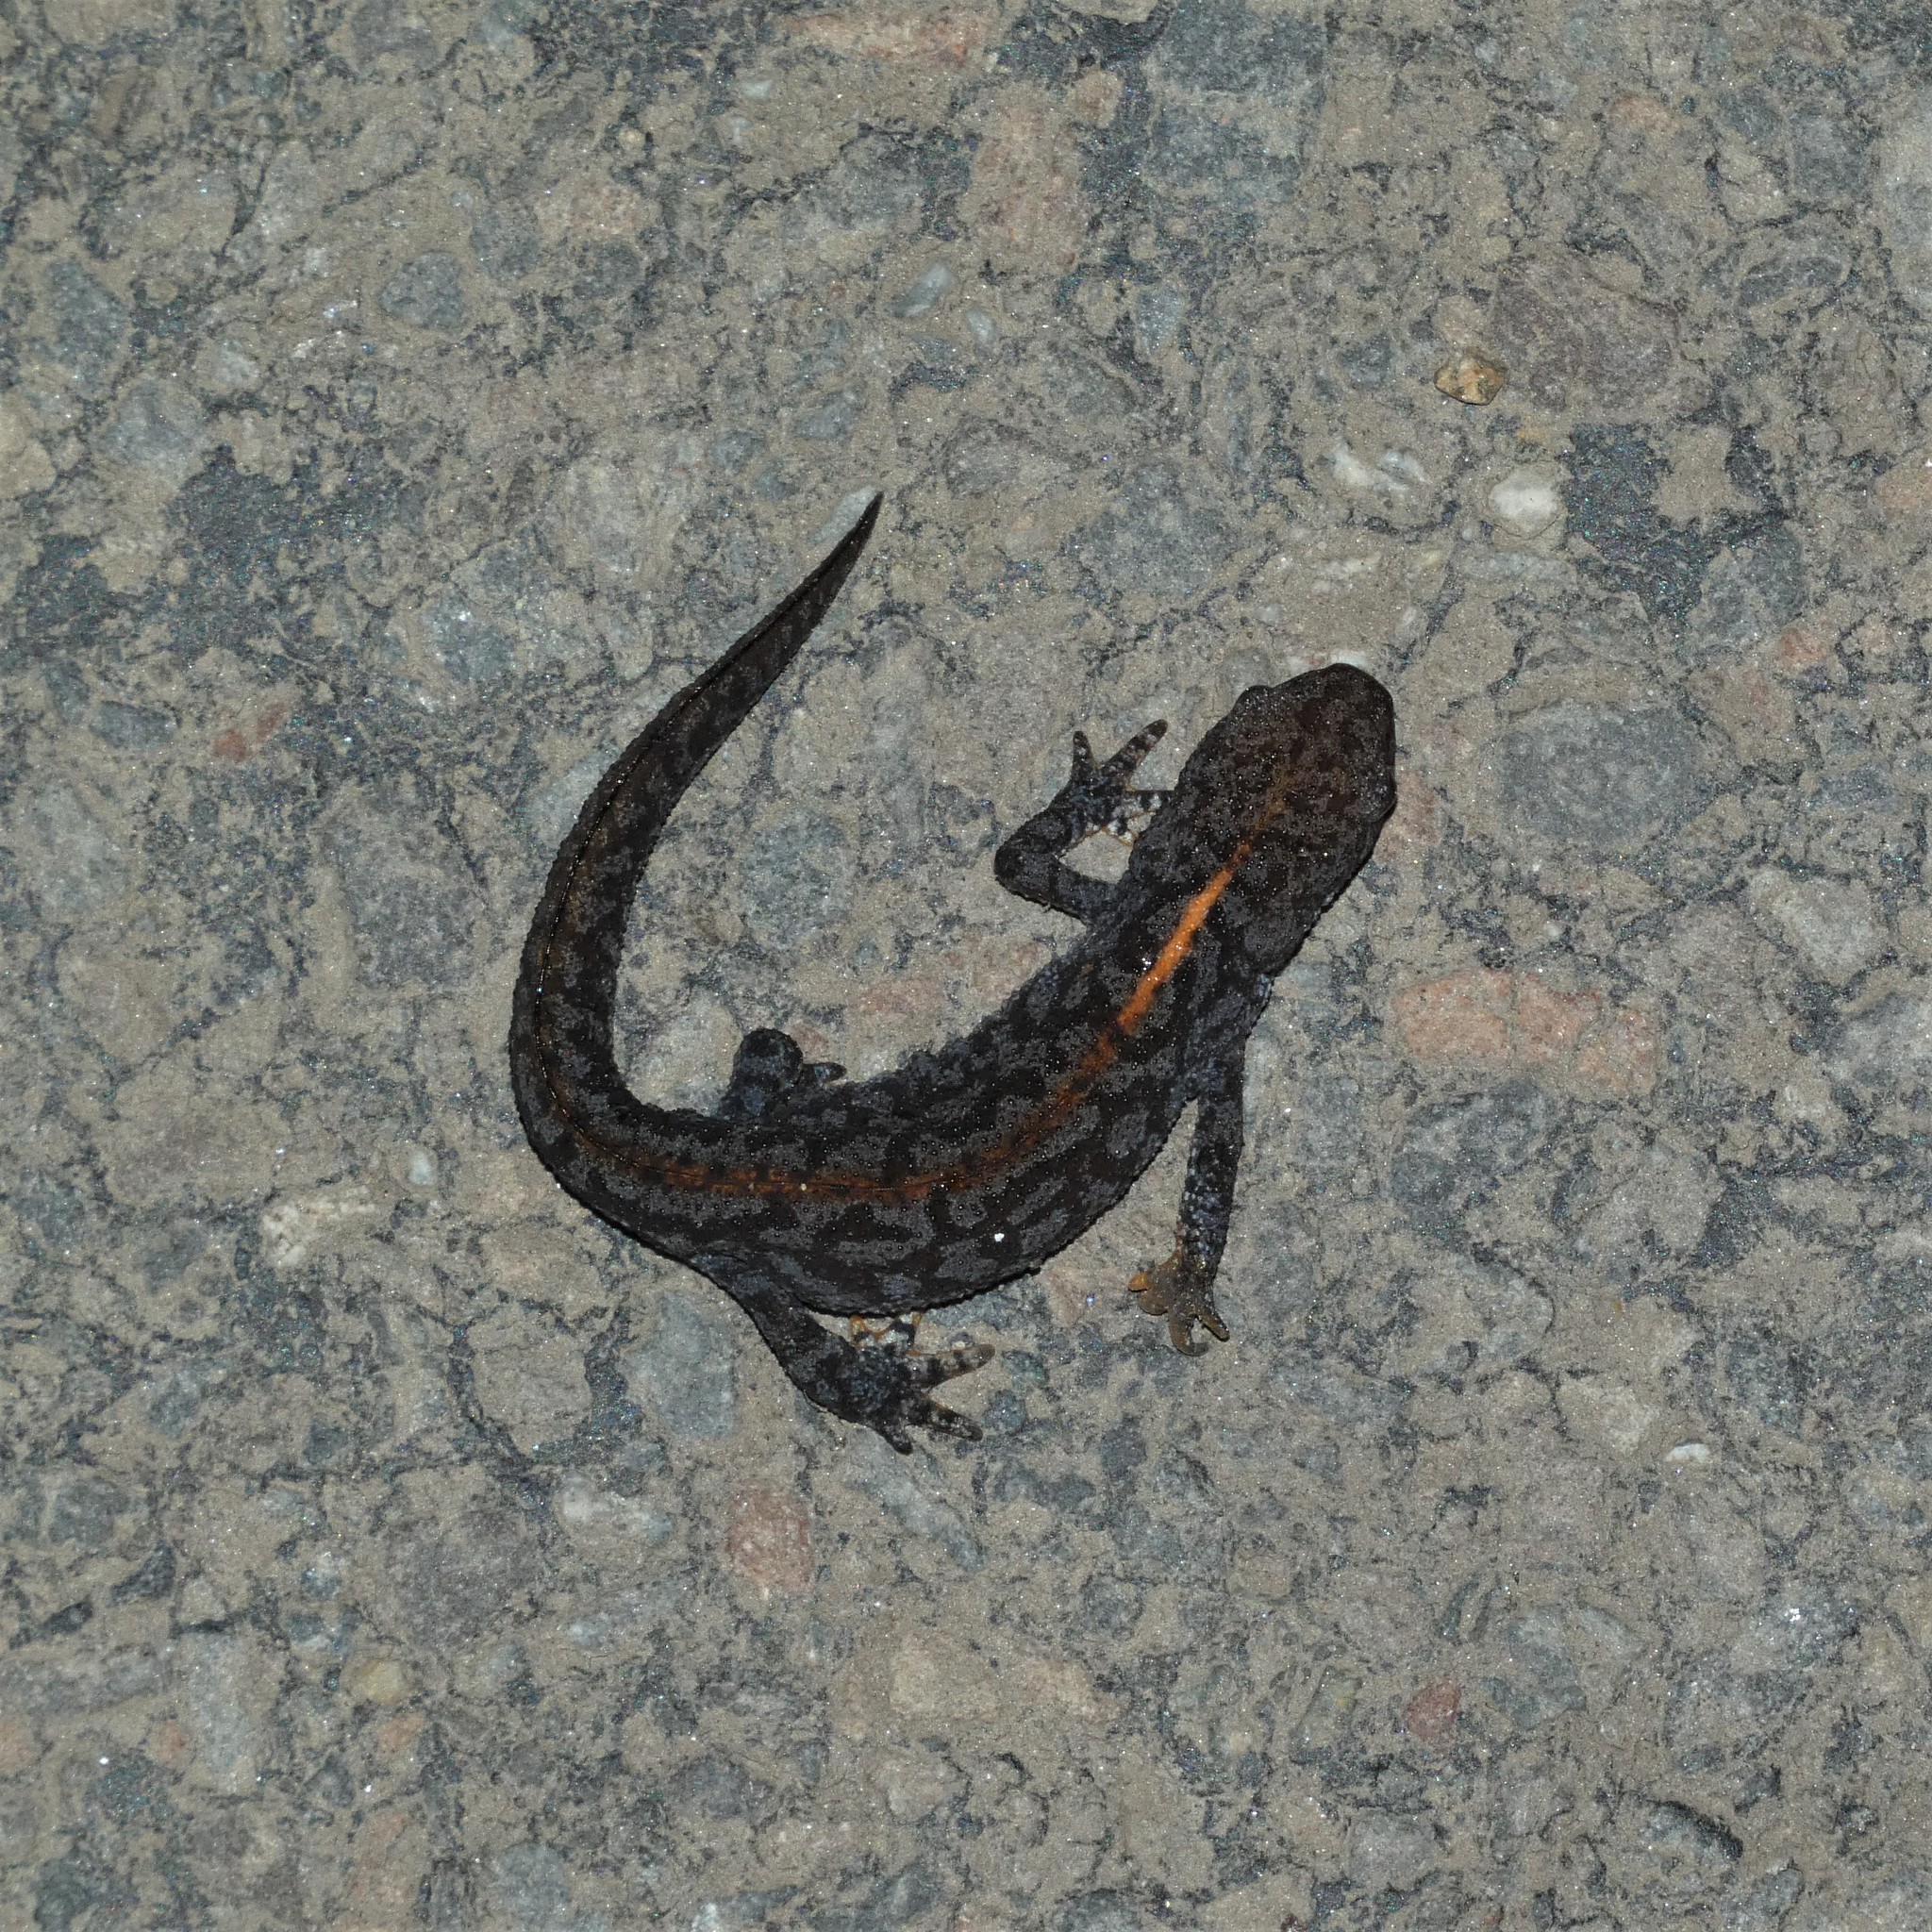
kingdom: Animalia
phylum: Chordata
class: Amphibia
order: Caudata
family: Salamandridae
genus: Ichthyosaura
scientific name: Ichthyosaura alpestris
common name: Alpine newt
